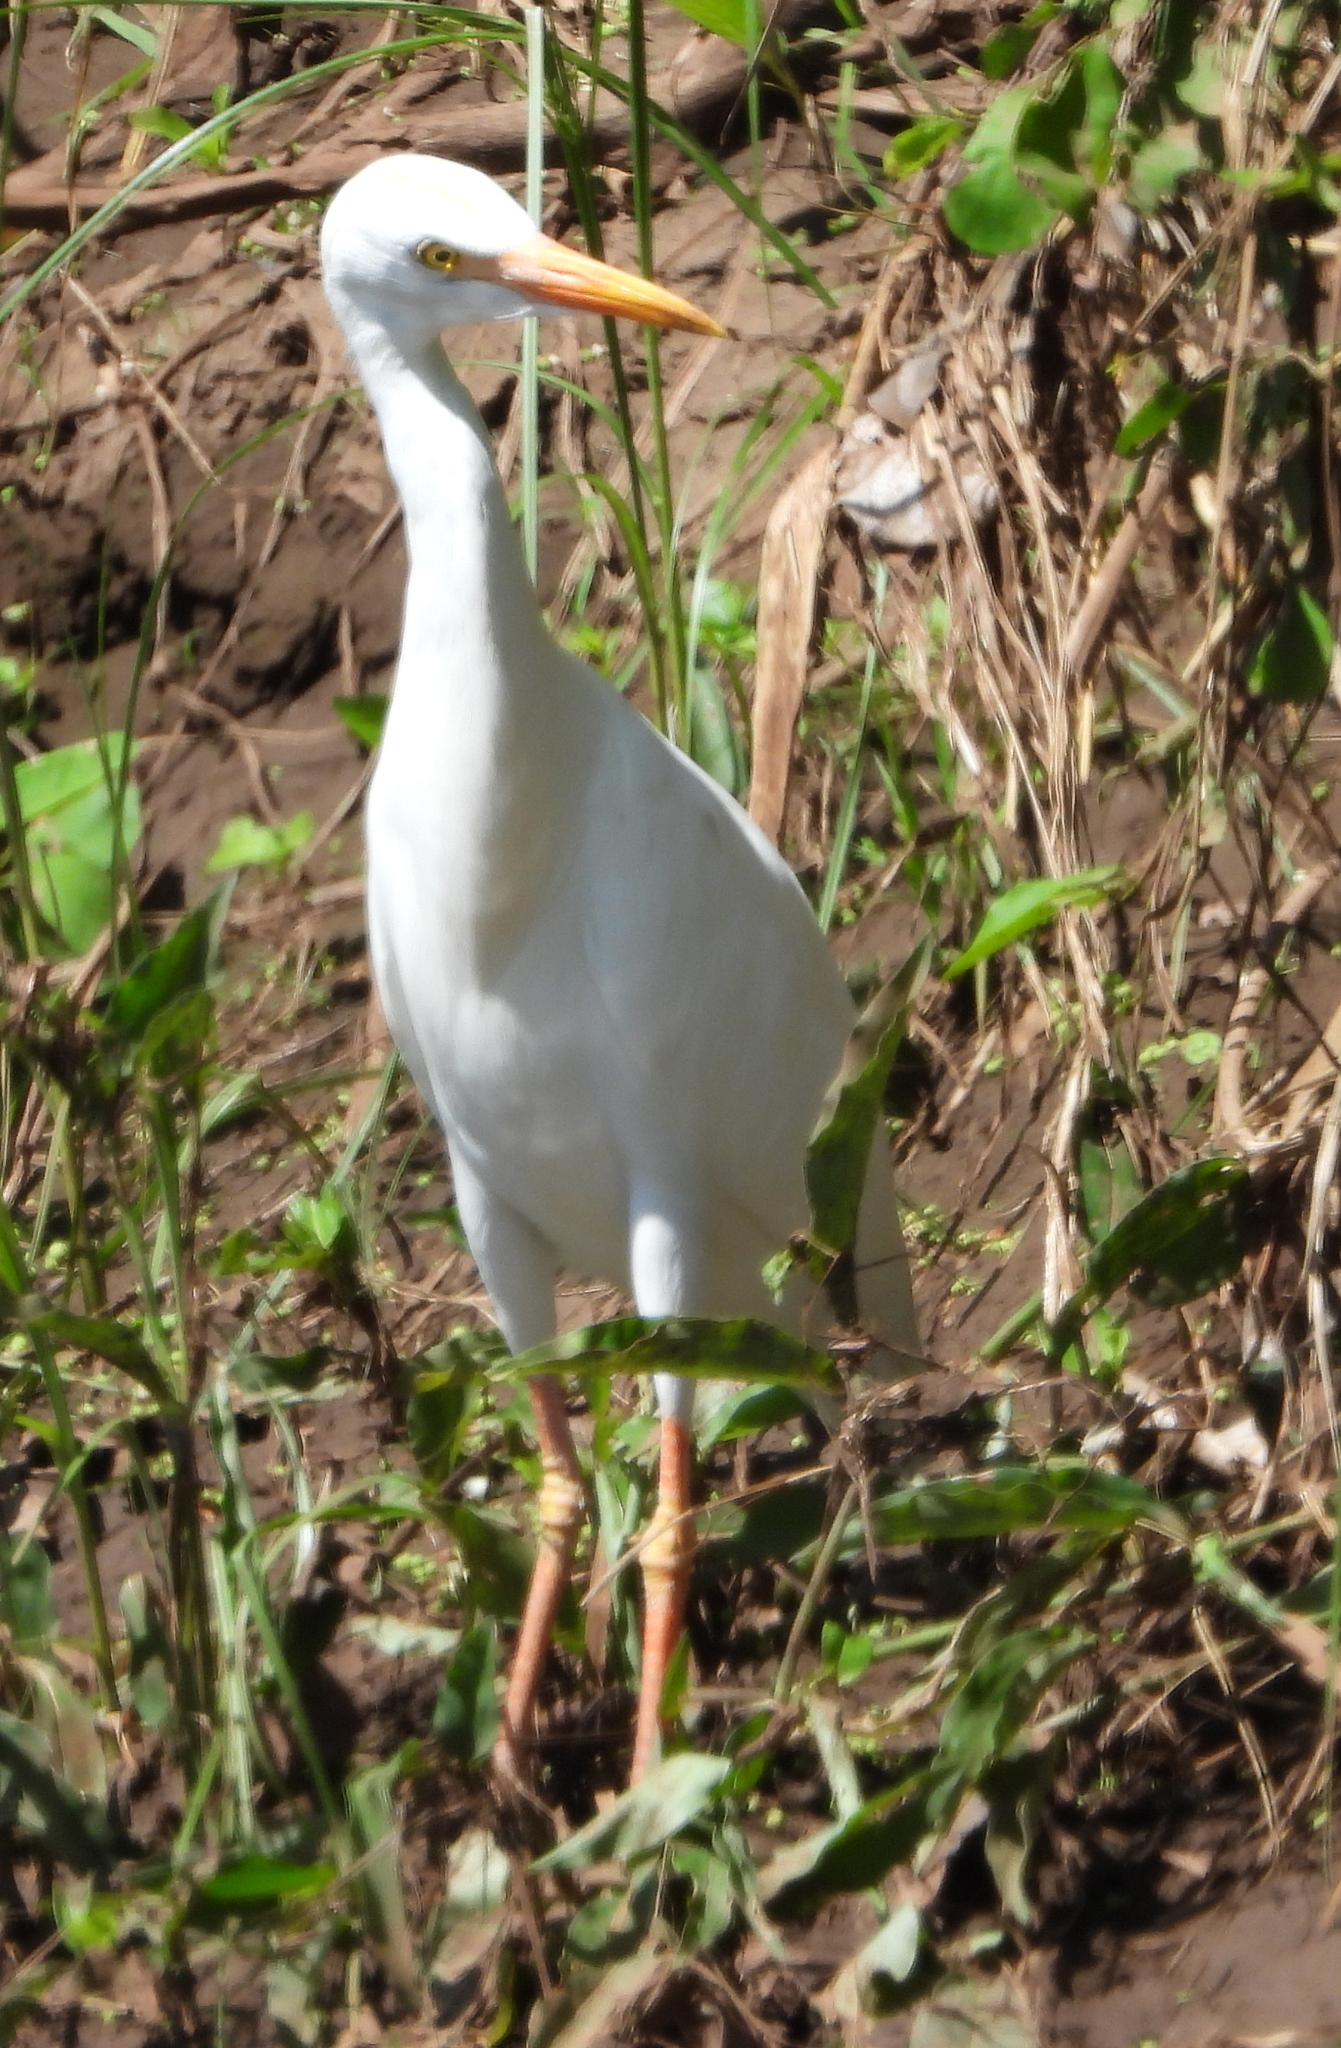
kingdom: Animalia
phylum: Chordata
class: Aves
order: Pelecaniformes
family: Ardeidae
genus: Bubulcus
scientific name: Bubulcus ibis
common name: Cattle egret
